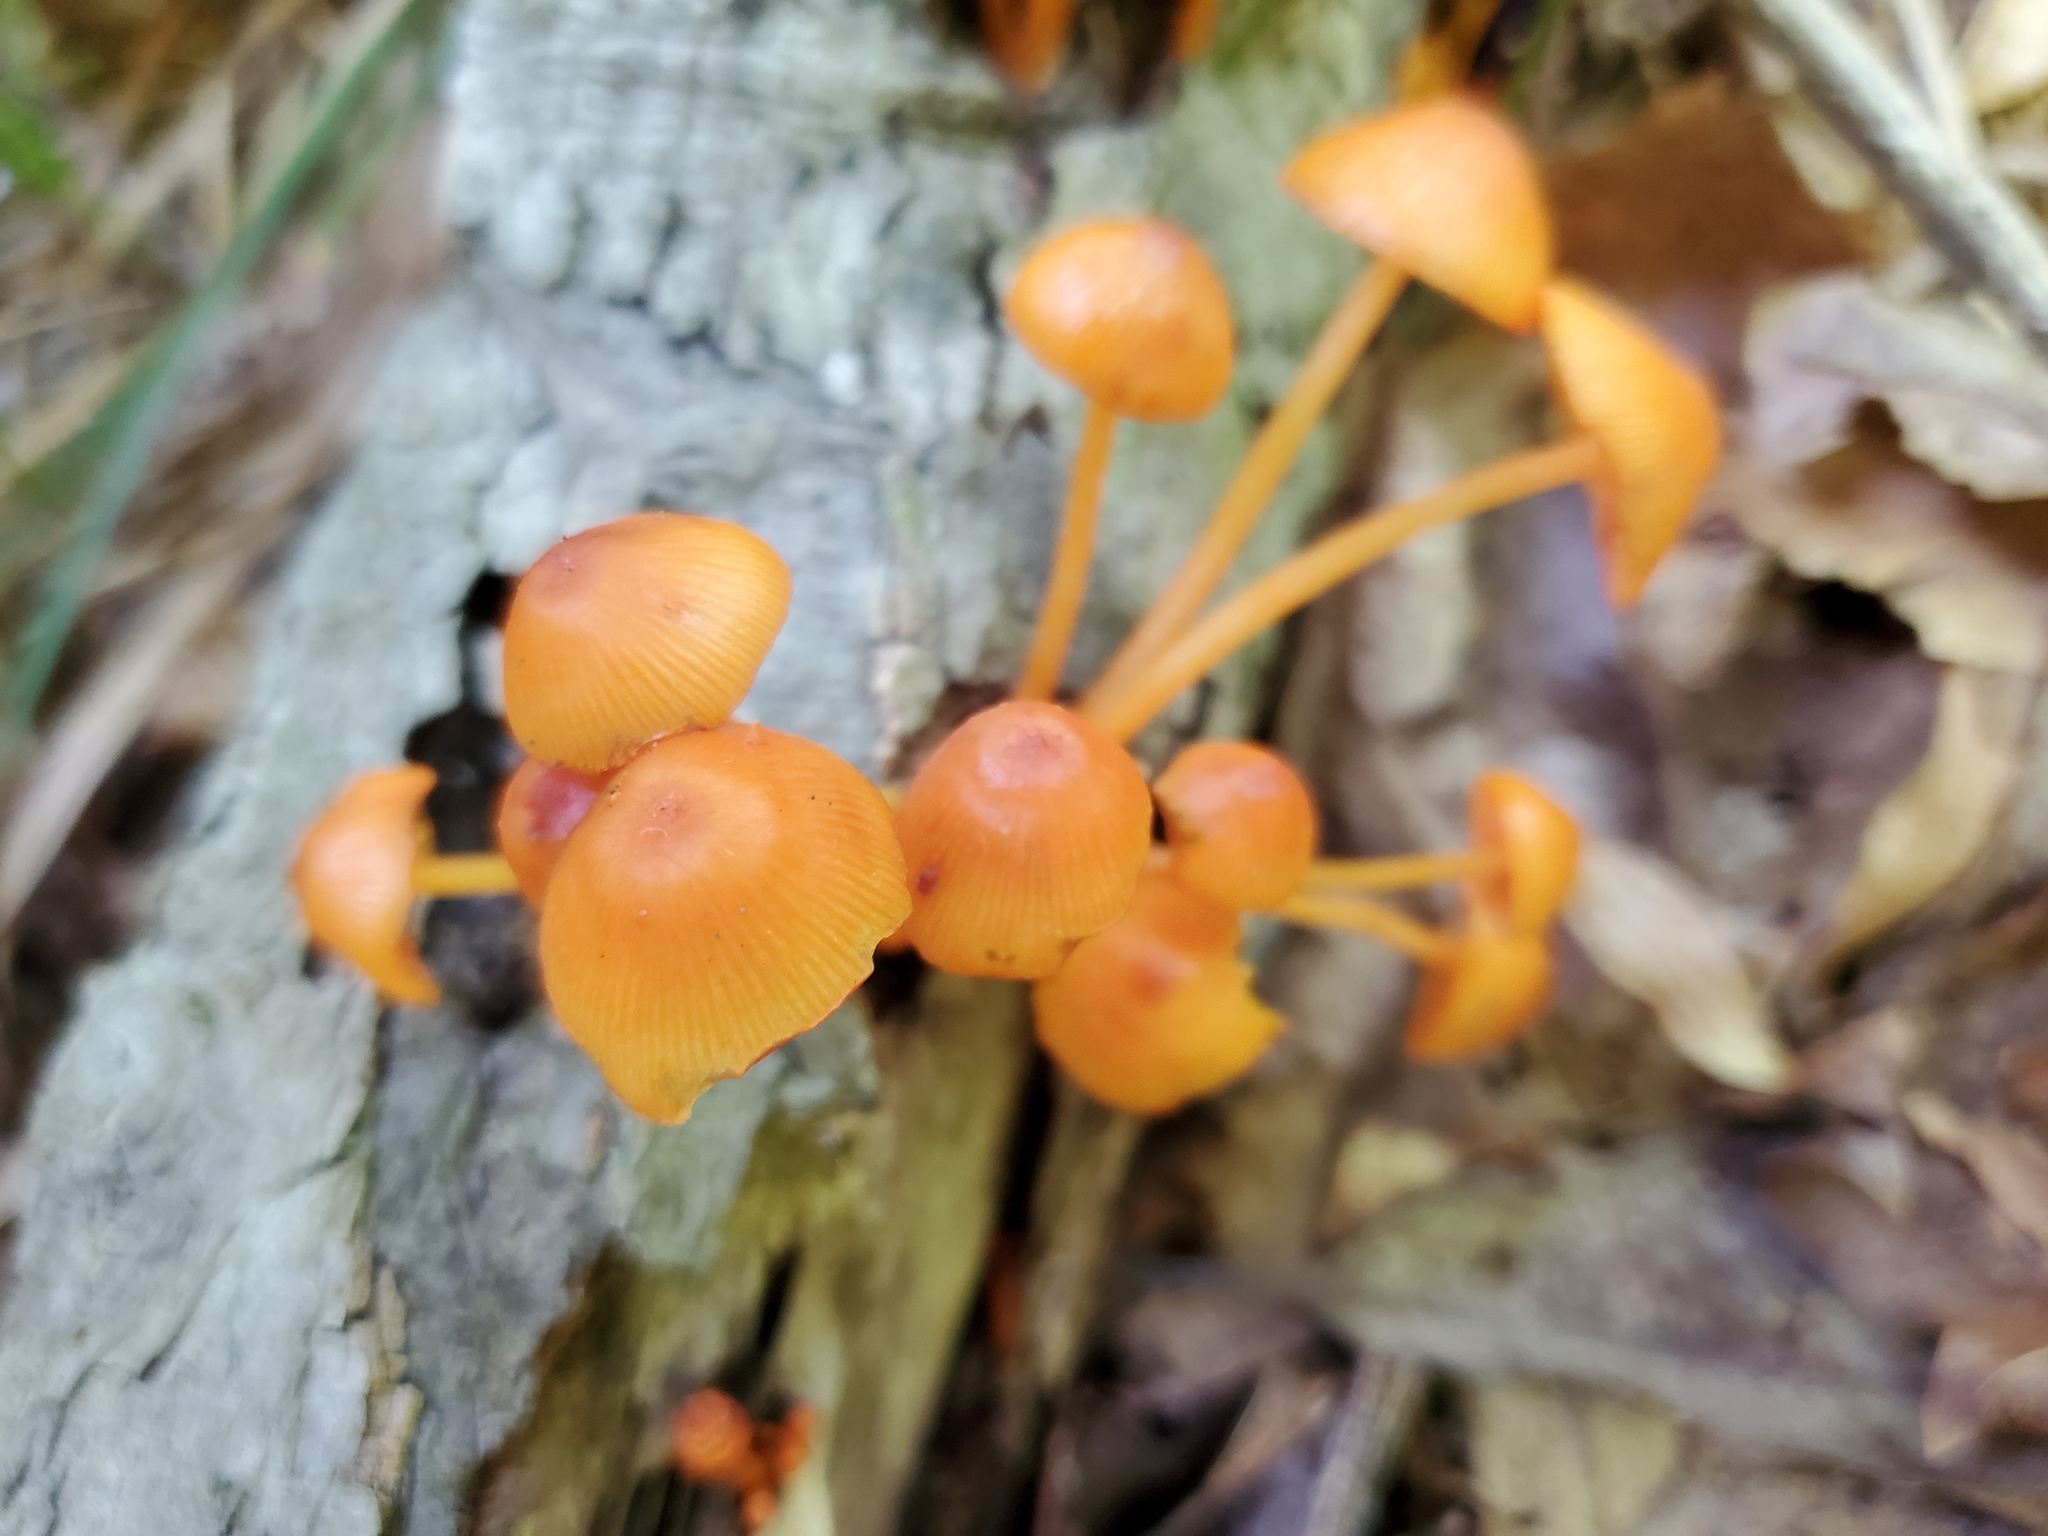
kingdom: Fungi
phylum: Basidiomycota
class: Agaricomycetes
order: Agaricales
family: Mycenaceae
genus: Mycena
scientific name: Mycena leaiana
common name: Orange mycena
